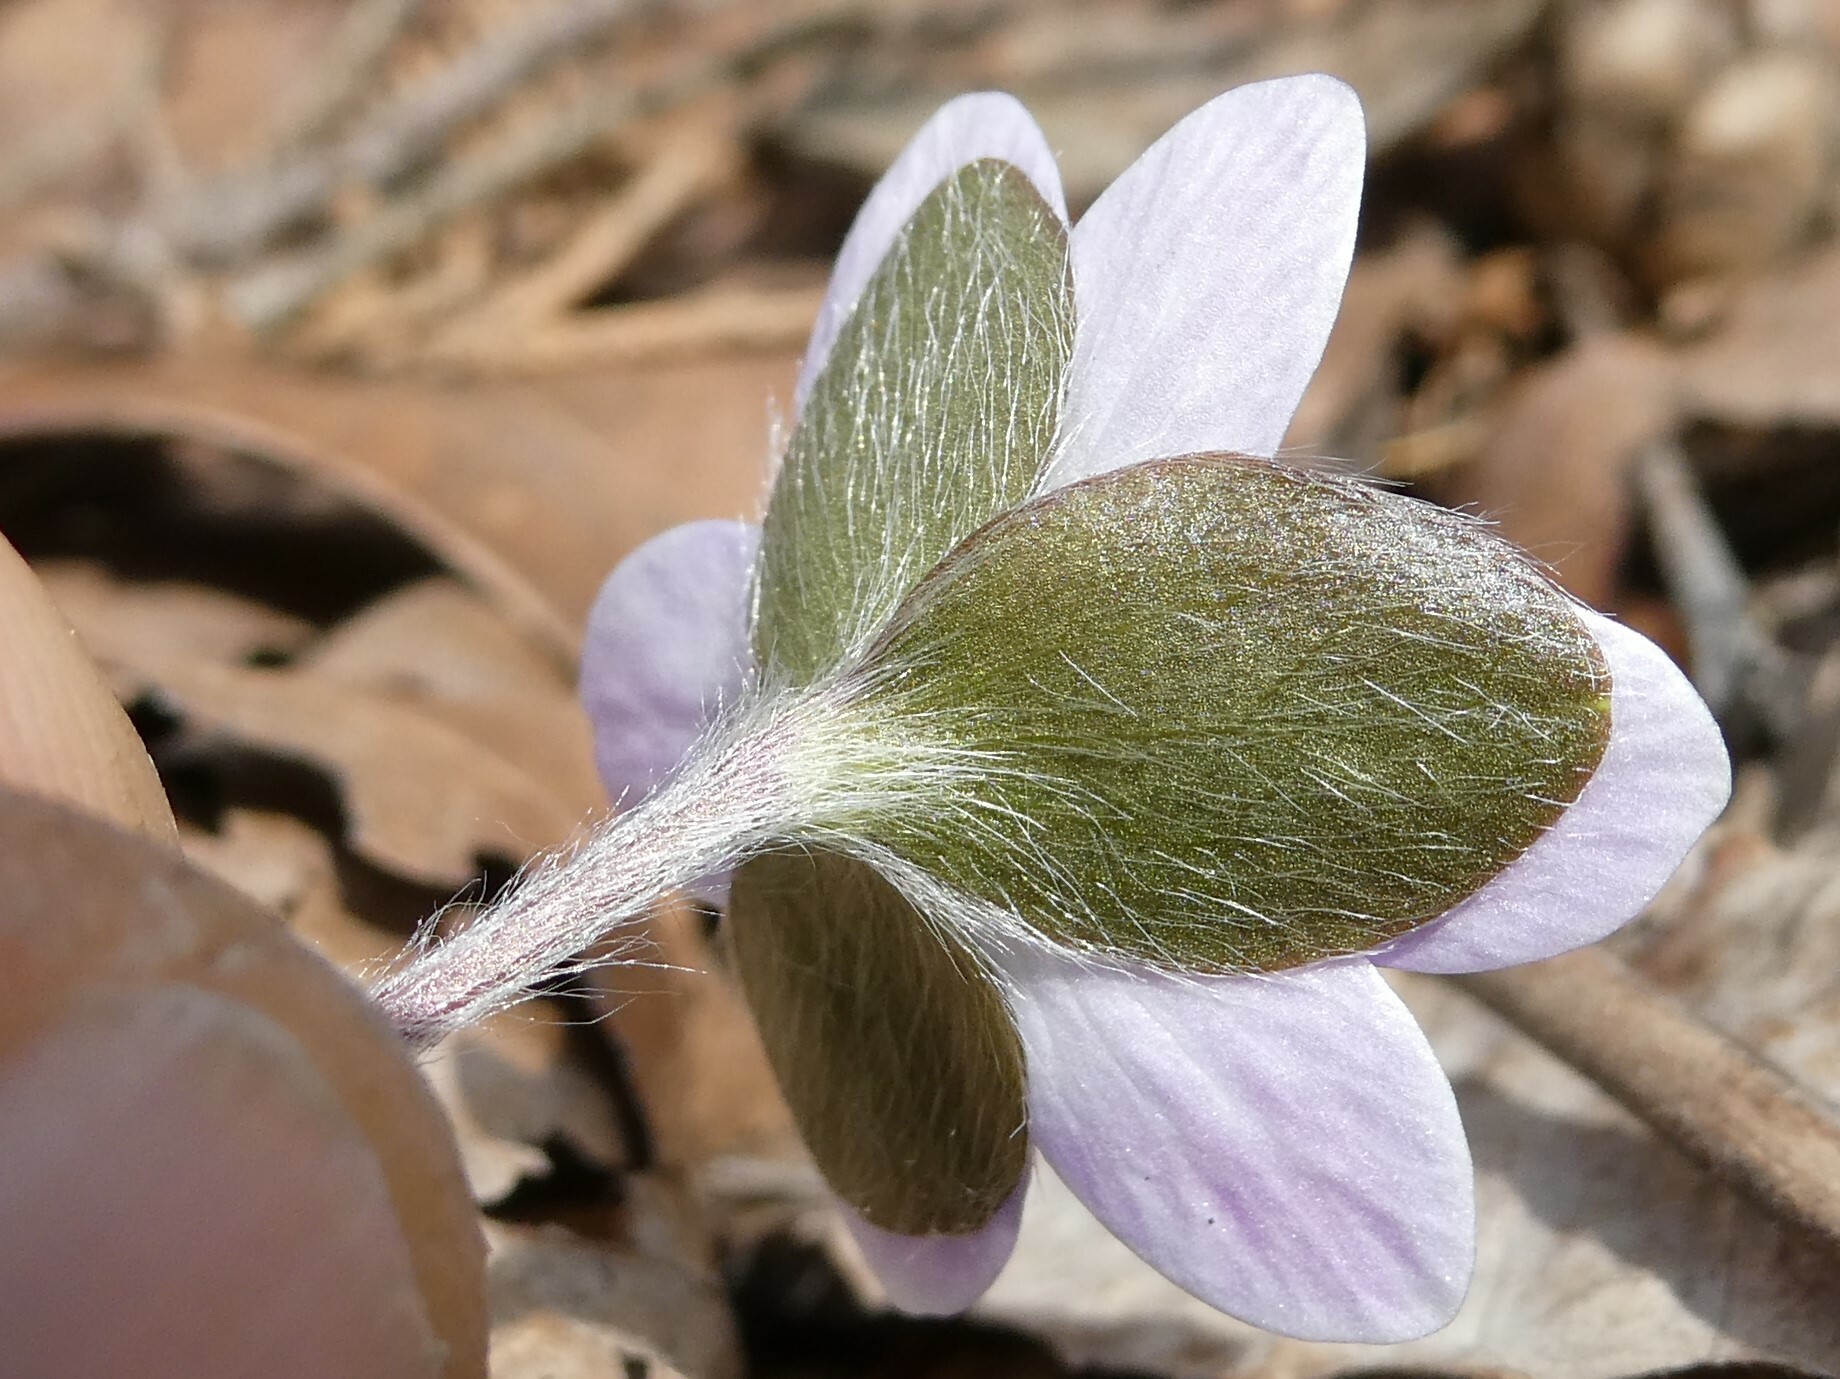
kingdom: Plantae
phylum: Tracheophyta
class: Magnoliopsida
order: Ranunculales
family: Ranunculaceae
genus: Hepatica
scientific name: Hepatica americana
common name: American hepatica
